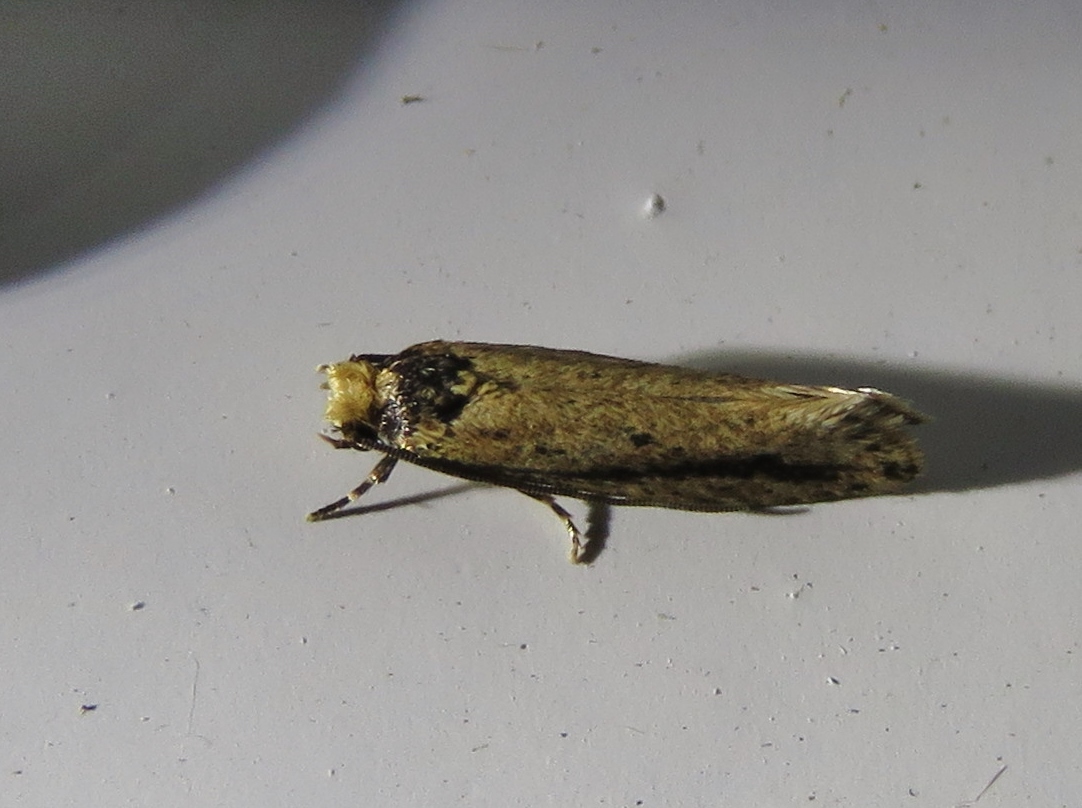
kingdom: Animalia
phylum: Arthropoda
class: Insecta
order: Lepidoptera
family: Tineidae
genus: Tinea
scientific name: Tinea apicimaculella
